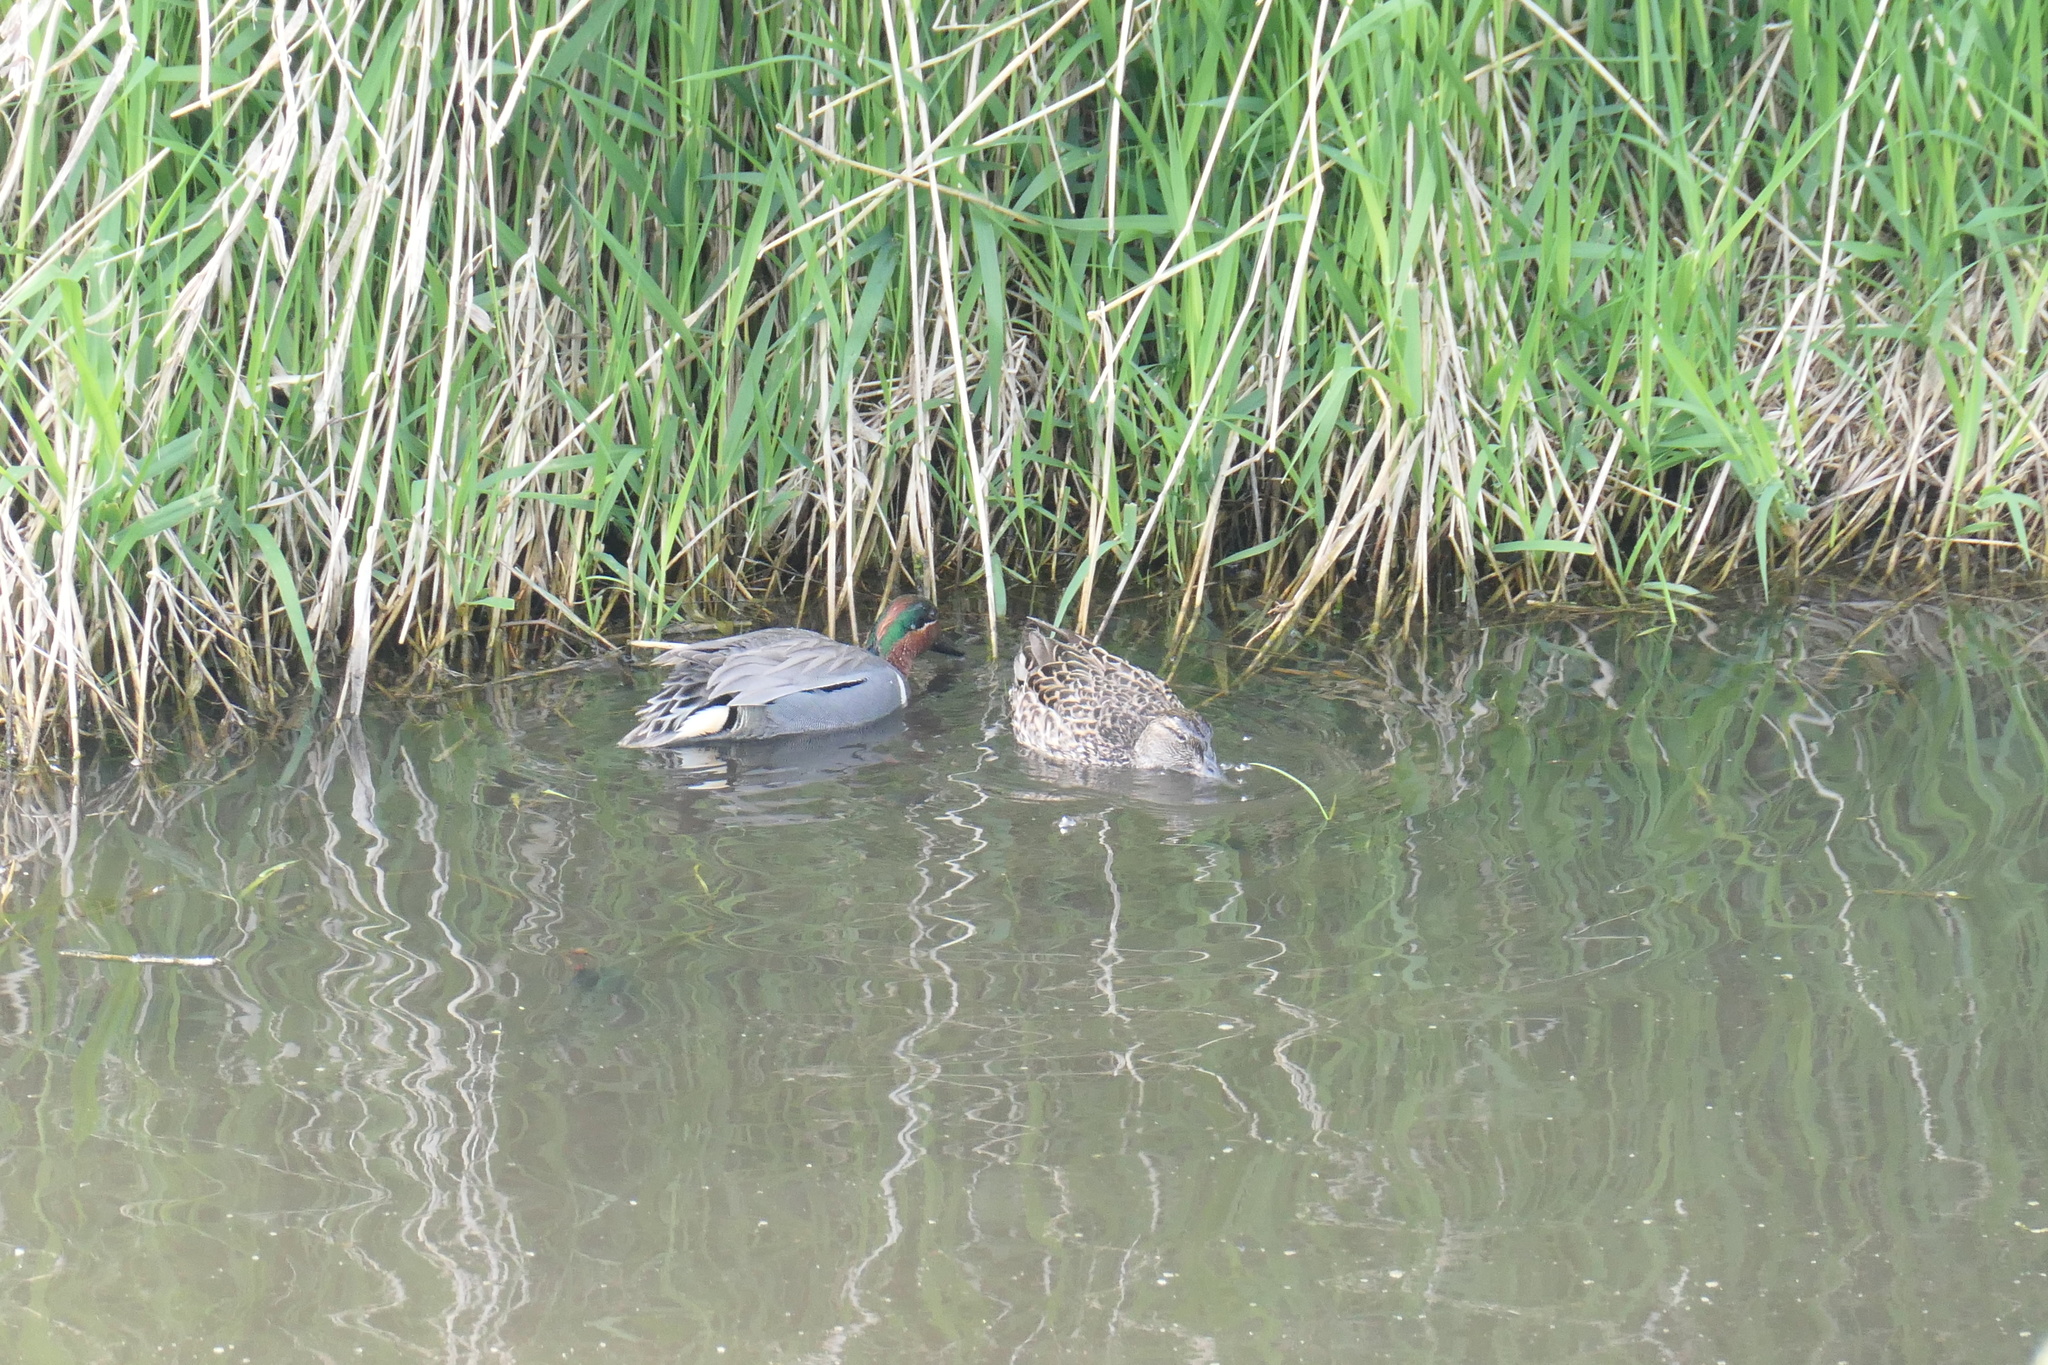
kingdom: Animalia
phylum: Chordata
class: Aves
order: Anseriformes
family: Anatidae
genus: Anas
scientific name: Anas crecca
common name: Eurasian teal
